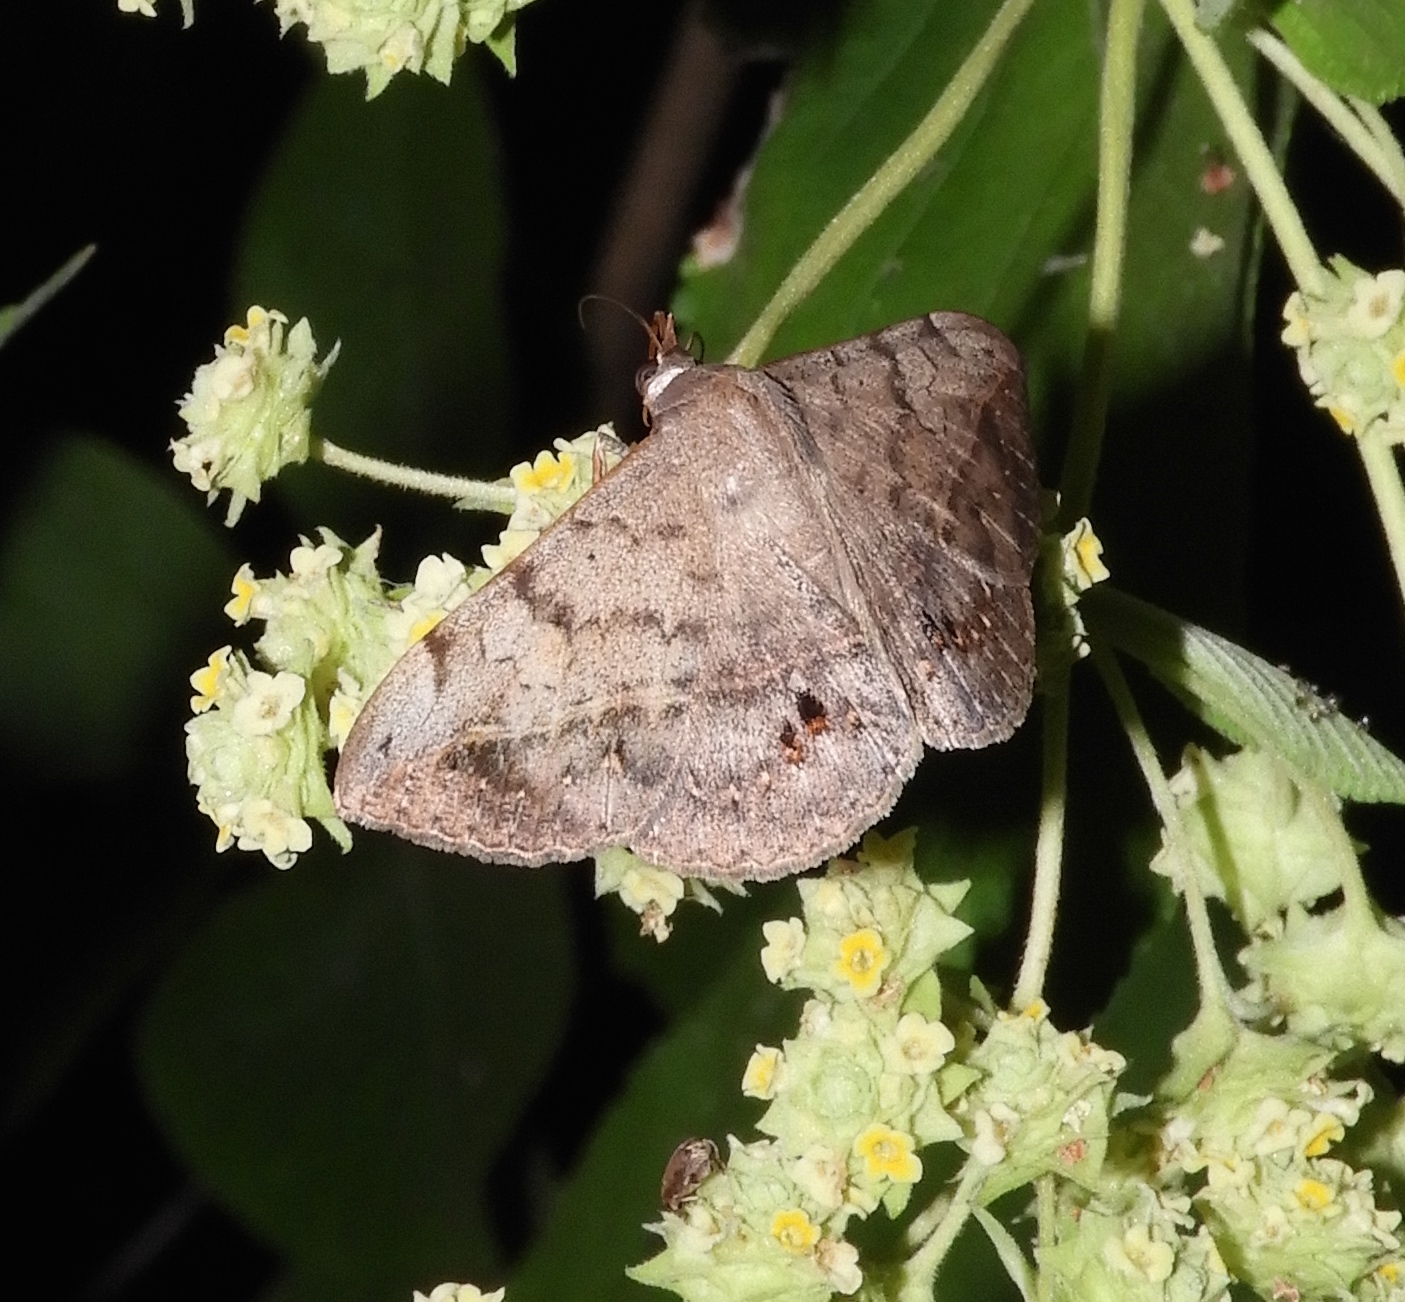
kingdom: Animalia
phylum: Arthropoda
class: Insecta
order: Lepidoptera
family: Erebidae
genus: Anticarsia
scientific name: Anticarsia gemmatalis
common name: Cutworm moth
